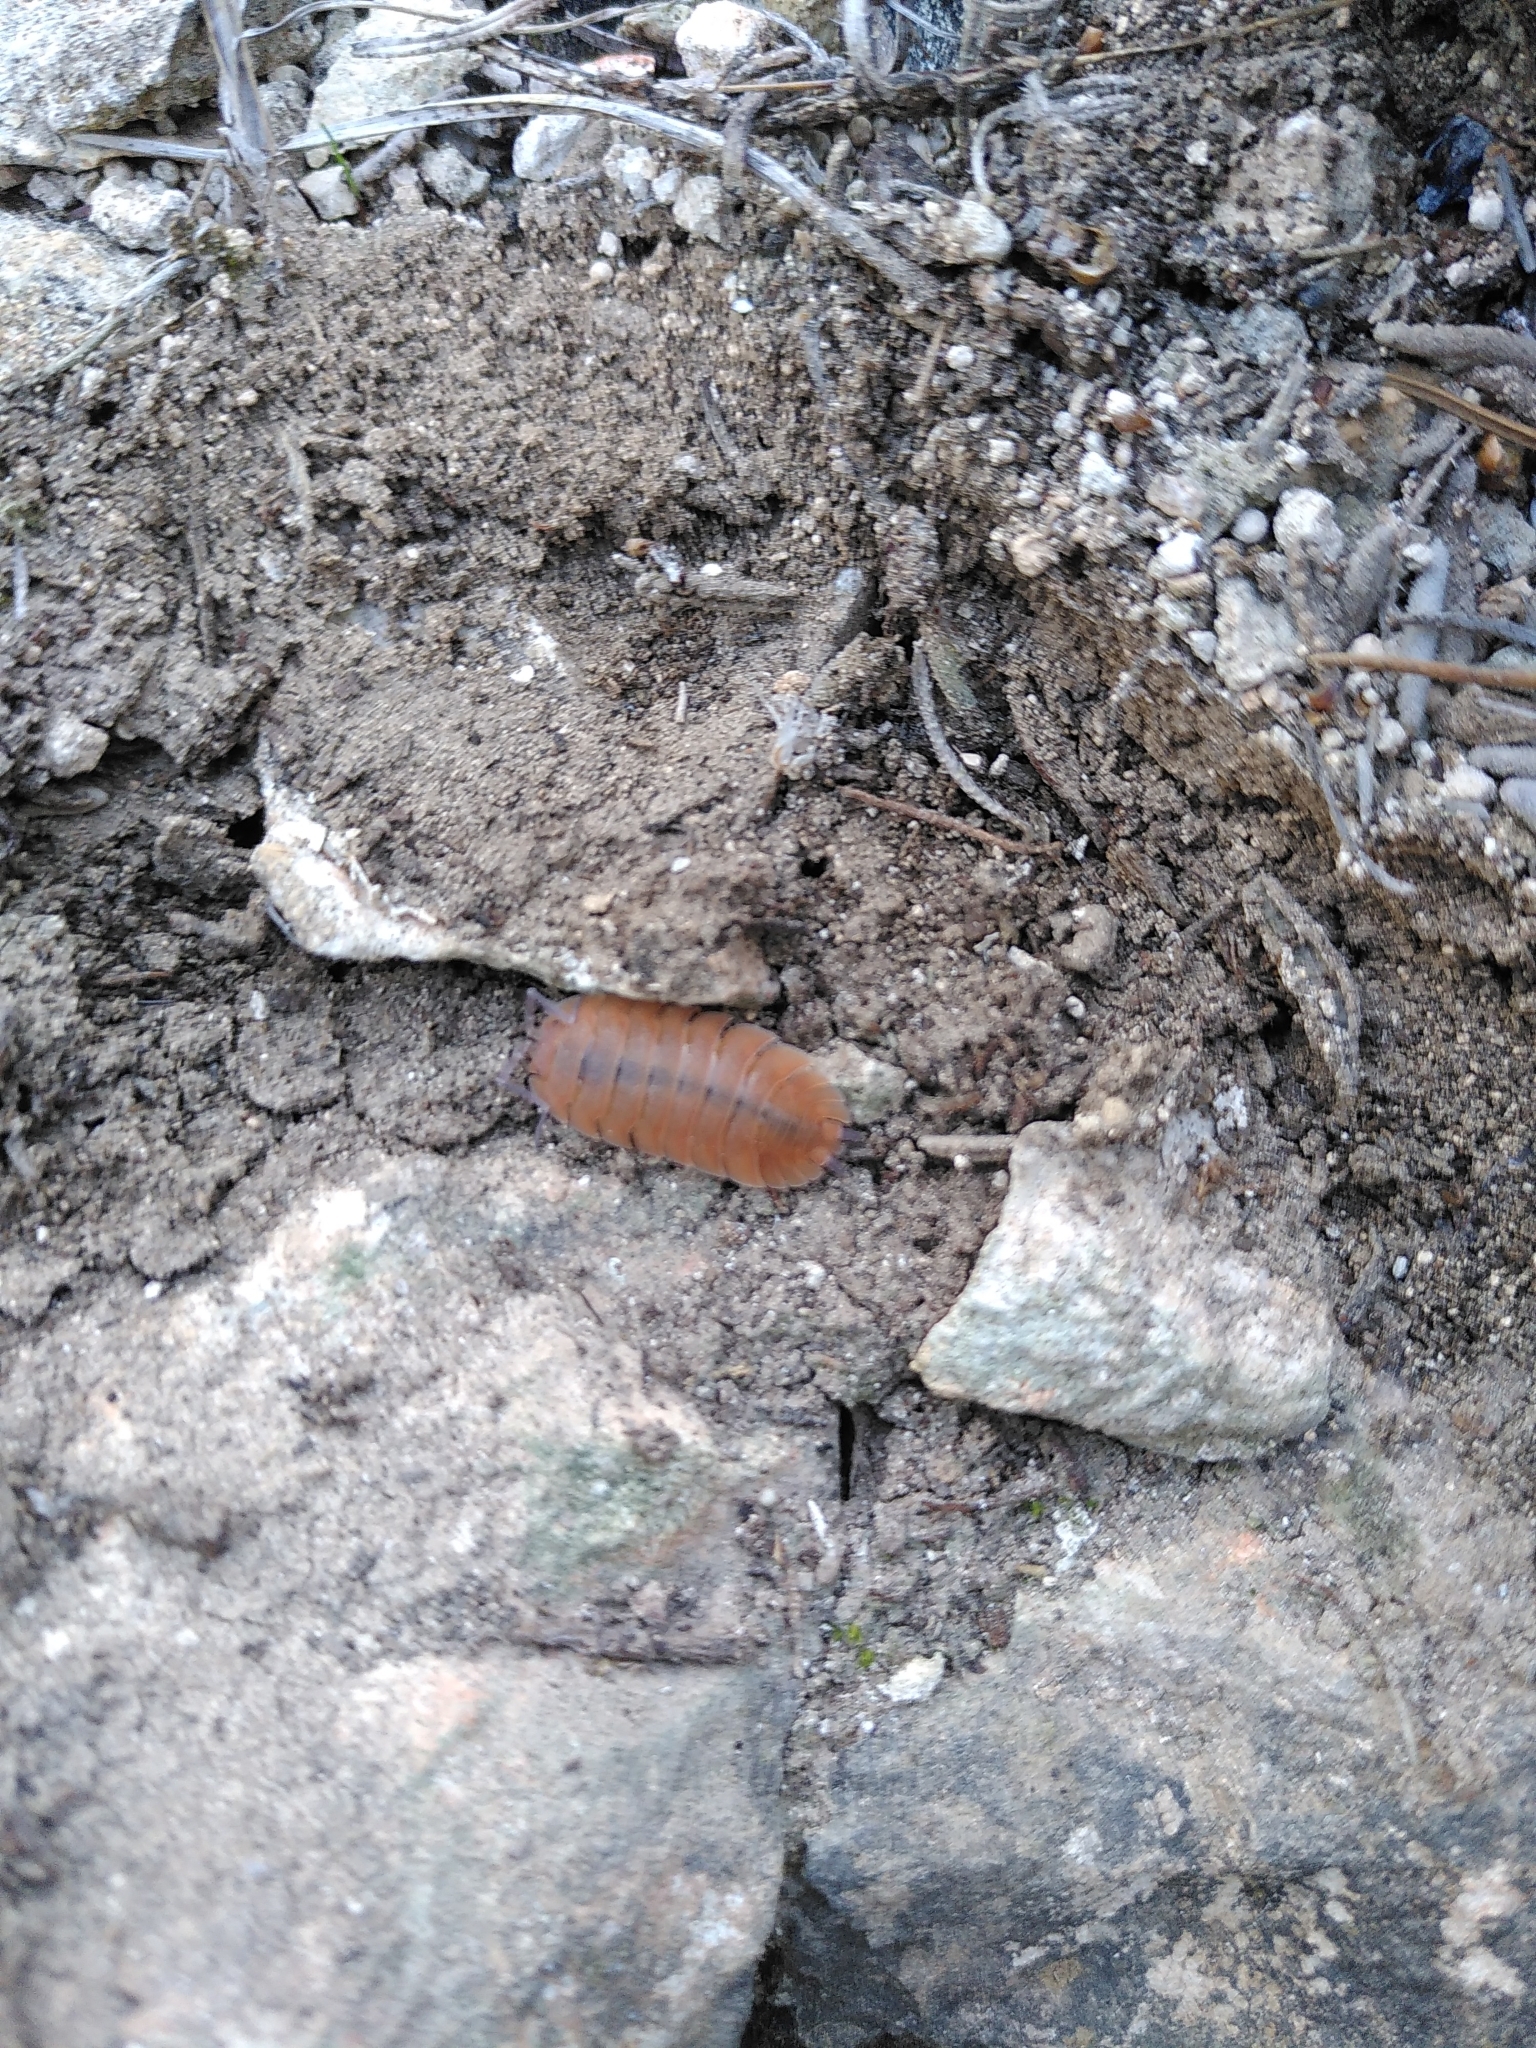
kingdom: Animalia
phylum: Arthropoda
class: Malacostraca
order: Isopoda
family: Porcellionidae
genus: Porcellio
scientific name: Porcellio
